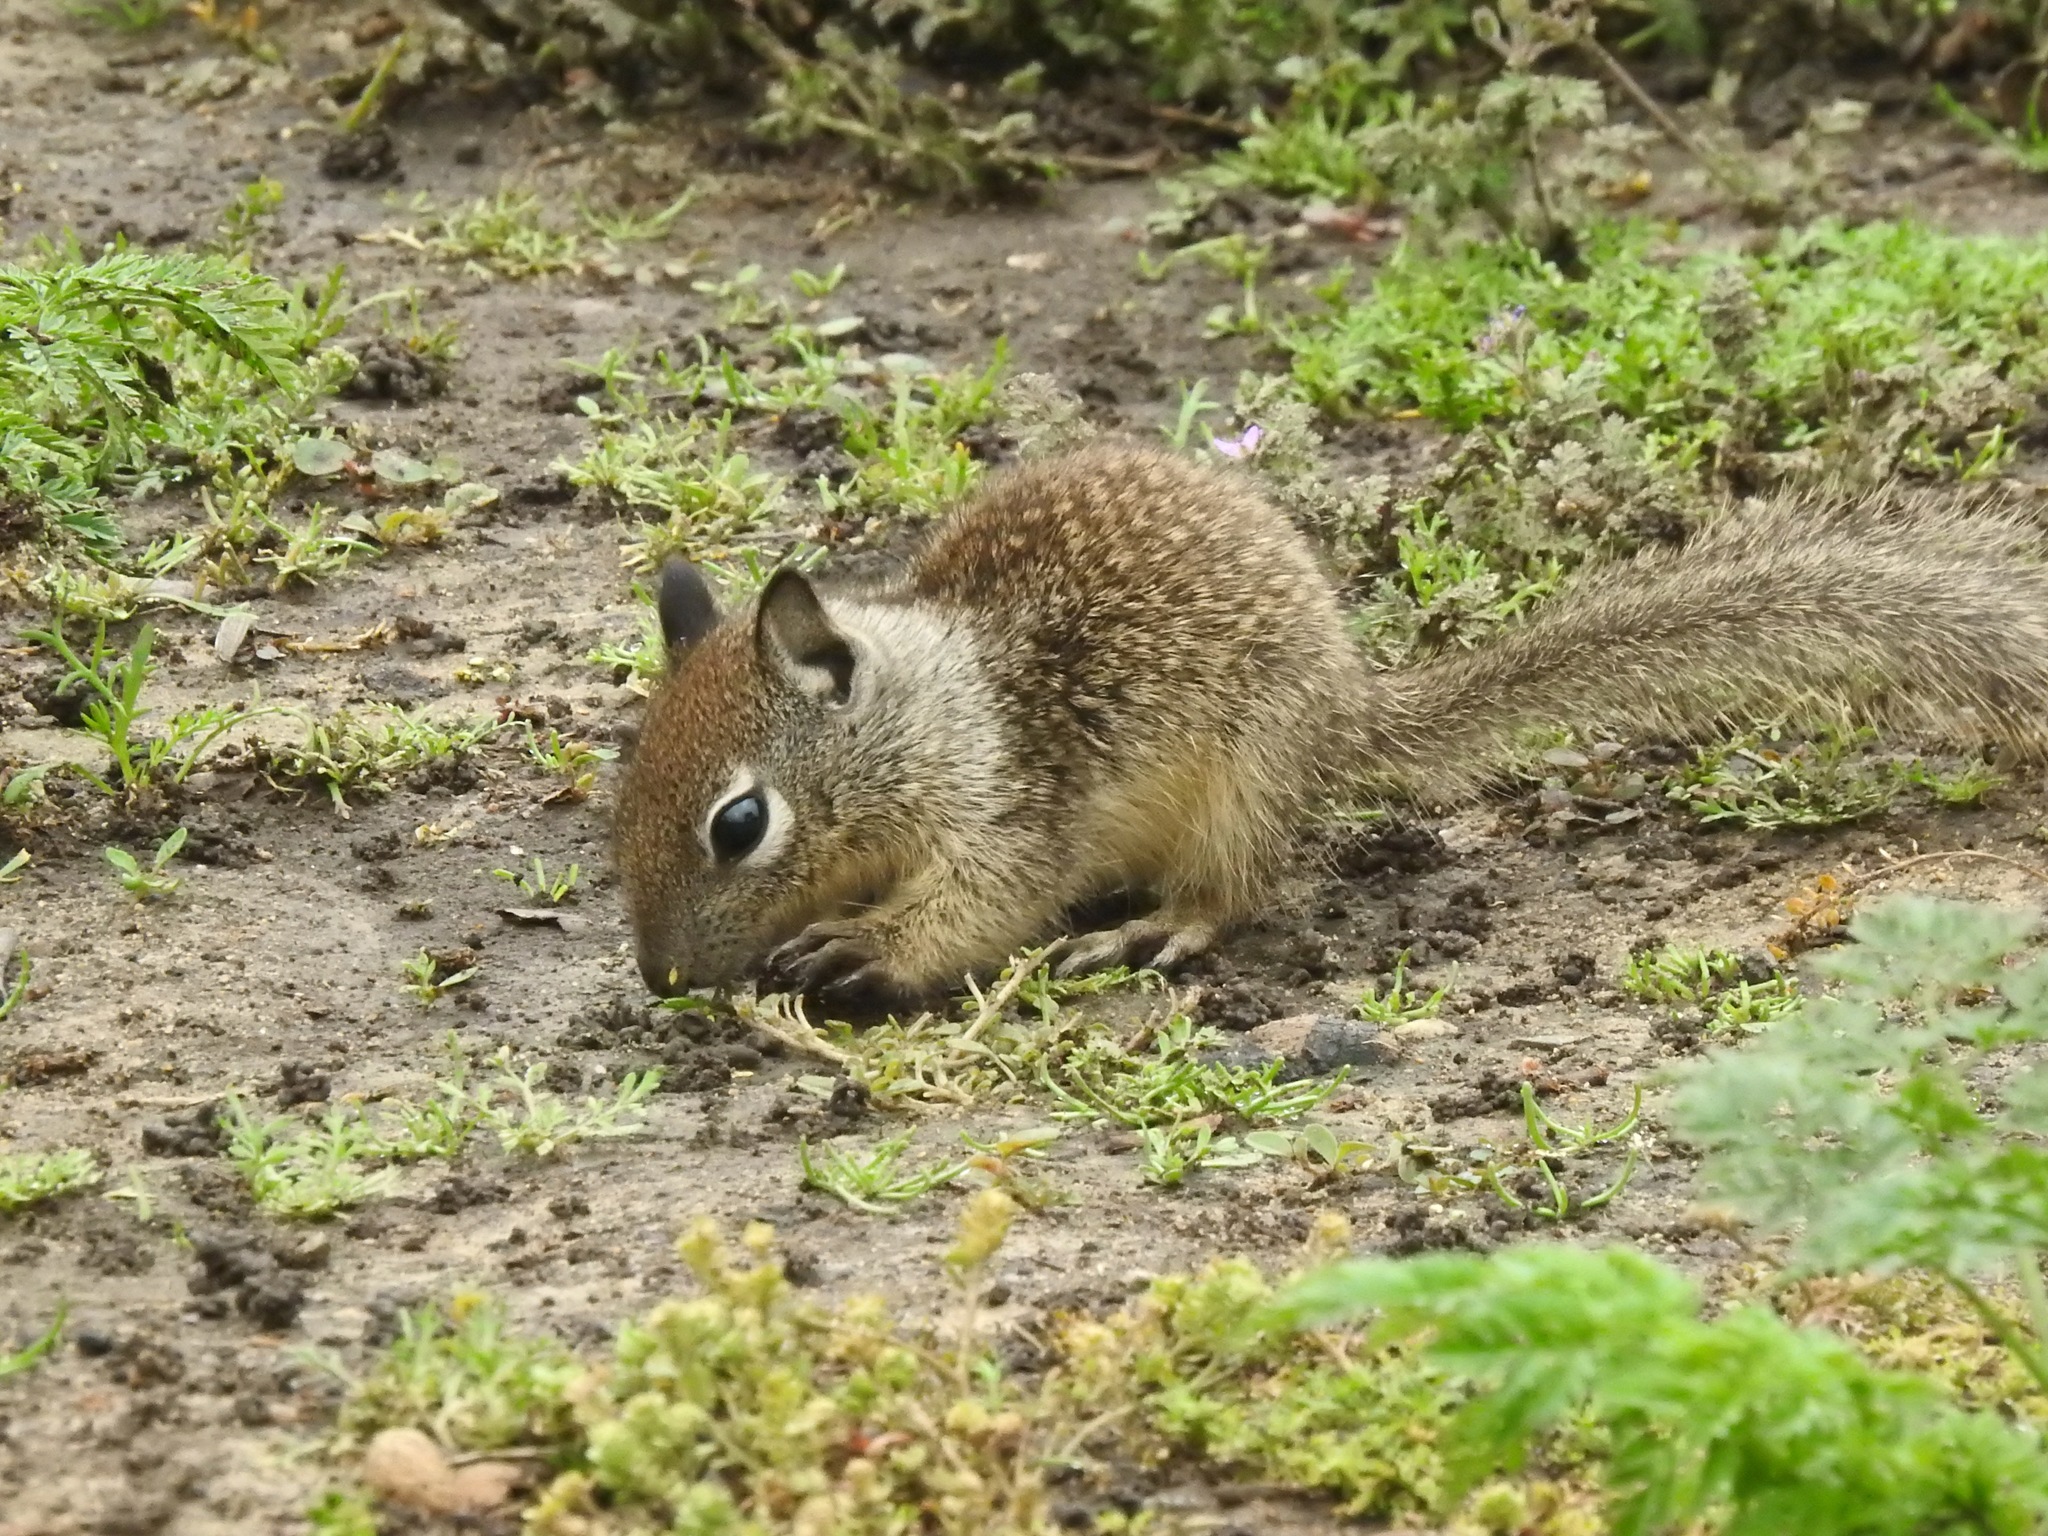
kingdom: Animalia
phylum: Chordata
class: Mammalia
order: Rodentia
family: Sciuridae
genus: Otospermophilus
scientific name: Otospermophilus beecheyi
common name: California ground squirrel
